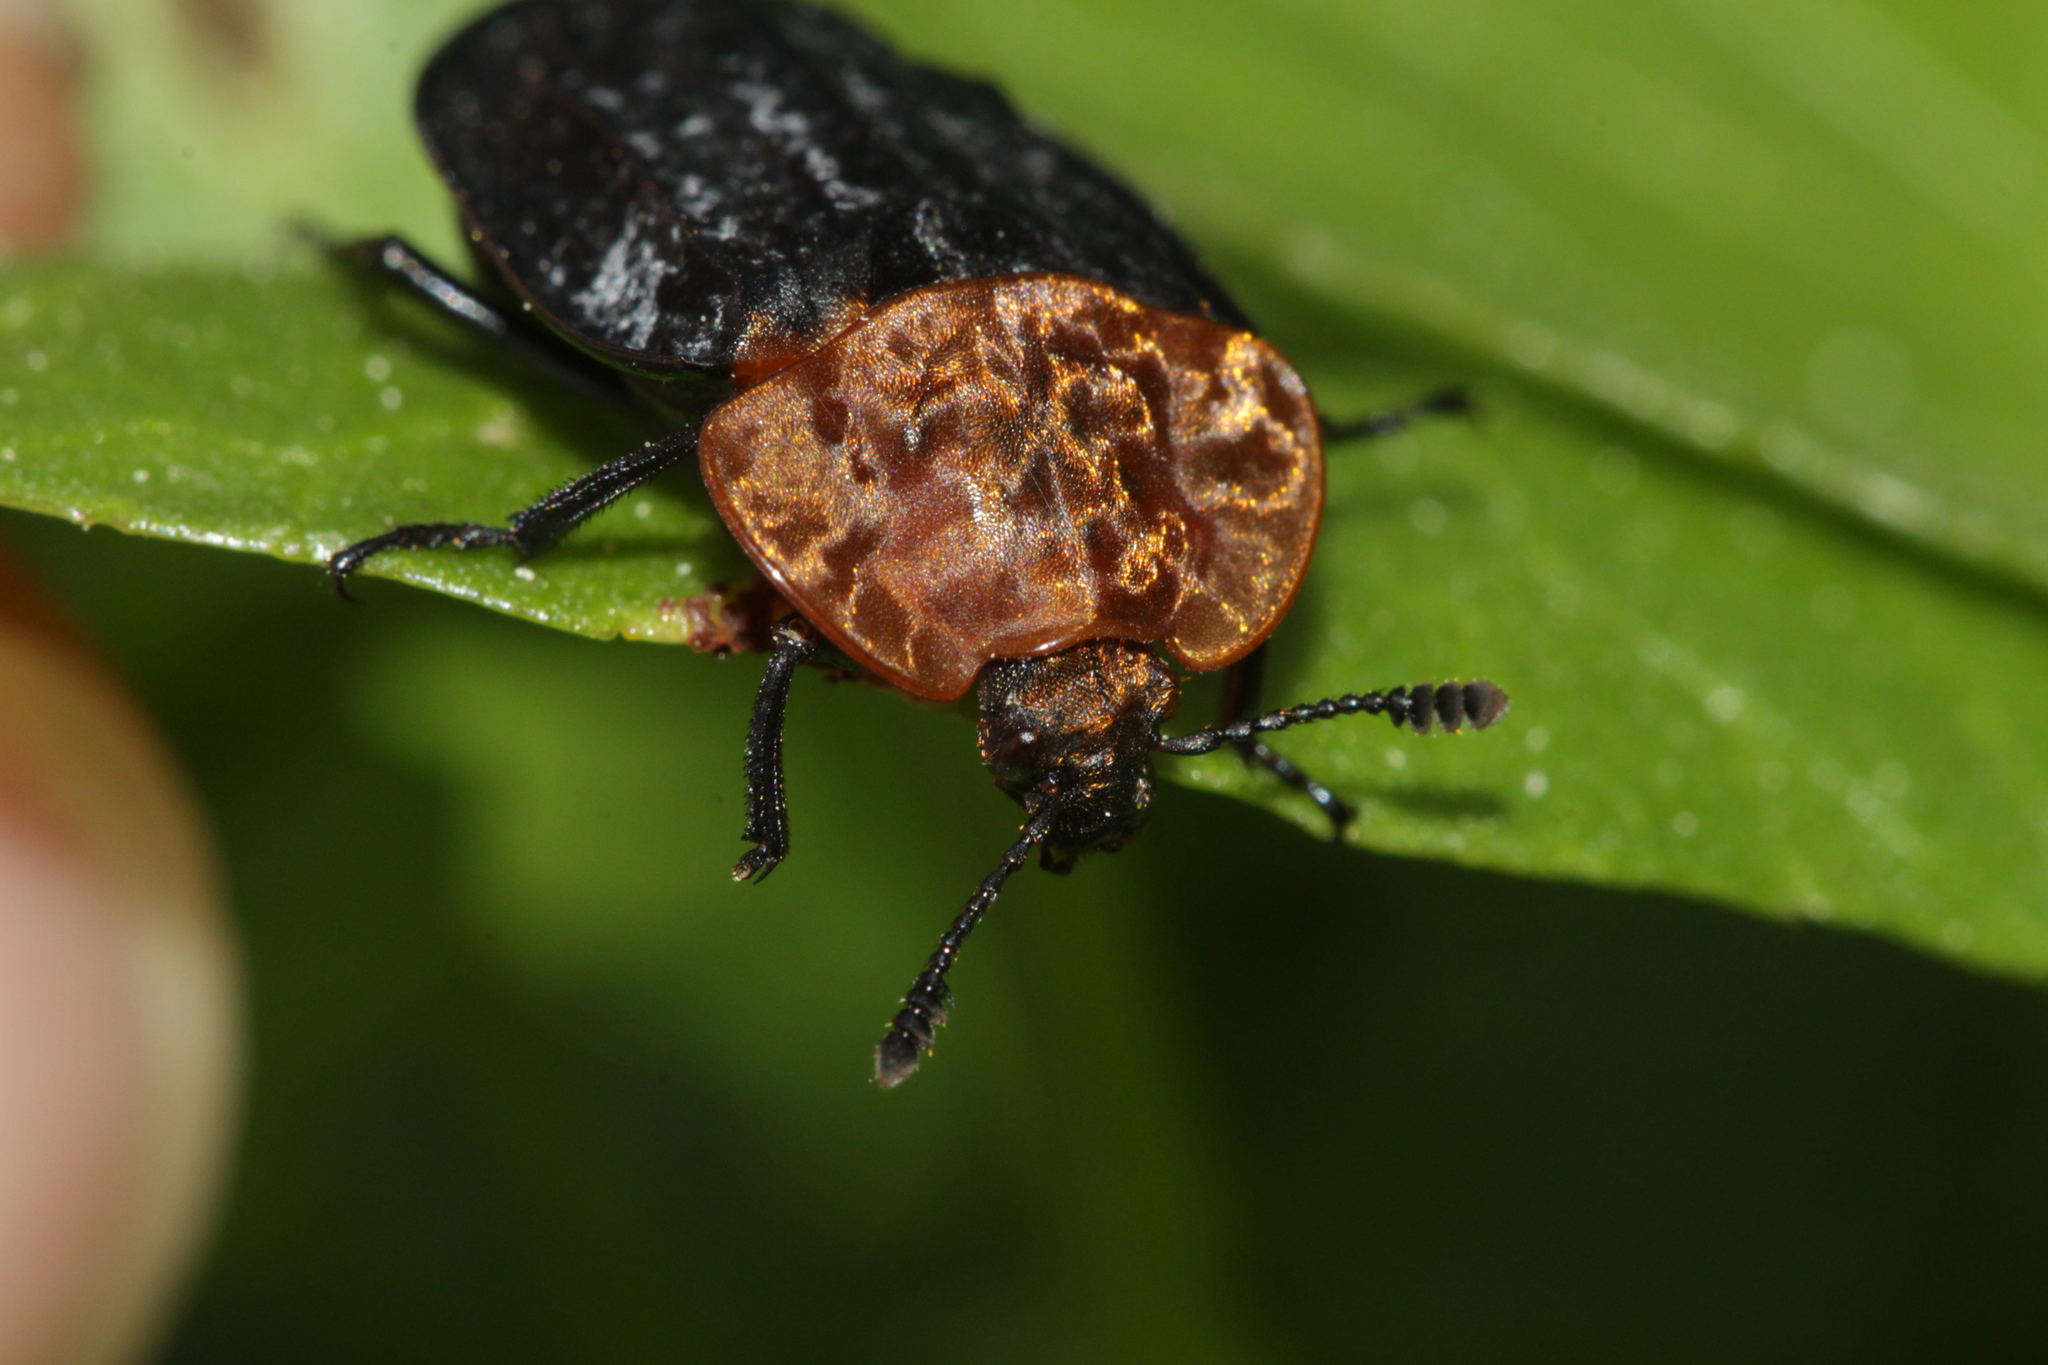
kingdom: Animalia
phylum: Arthropoda
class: Insecta
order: Coleoptera
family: Staphylinidae
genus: Oiceoptoma
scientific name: Oiceoptoma thoracicum
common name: Red-breasted carrion beetle
